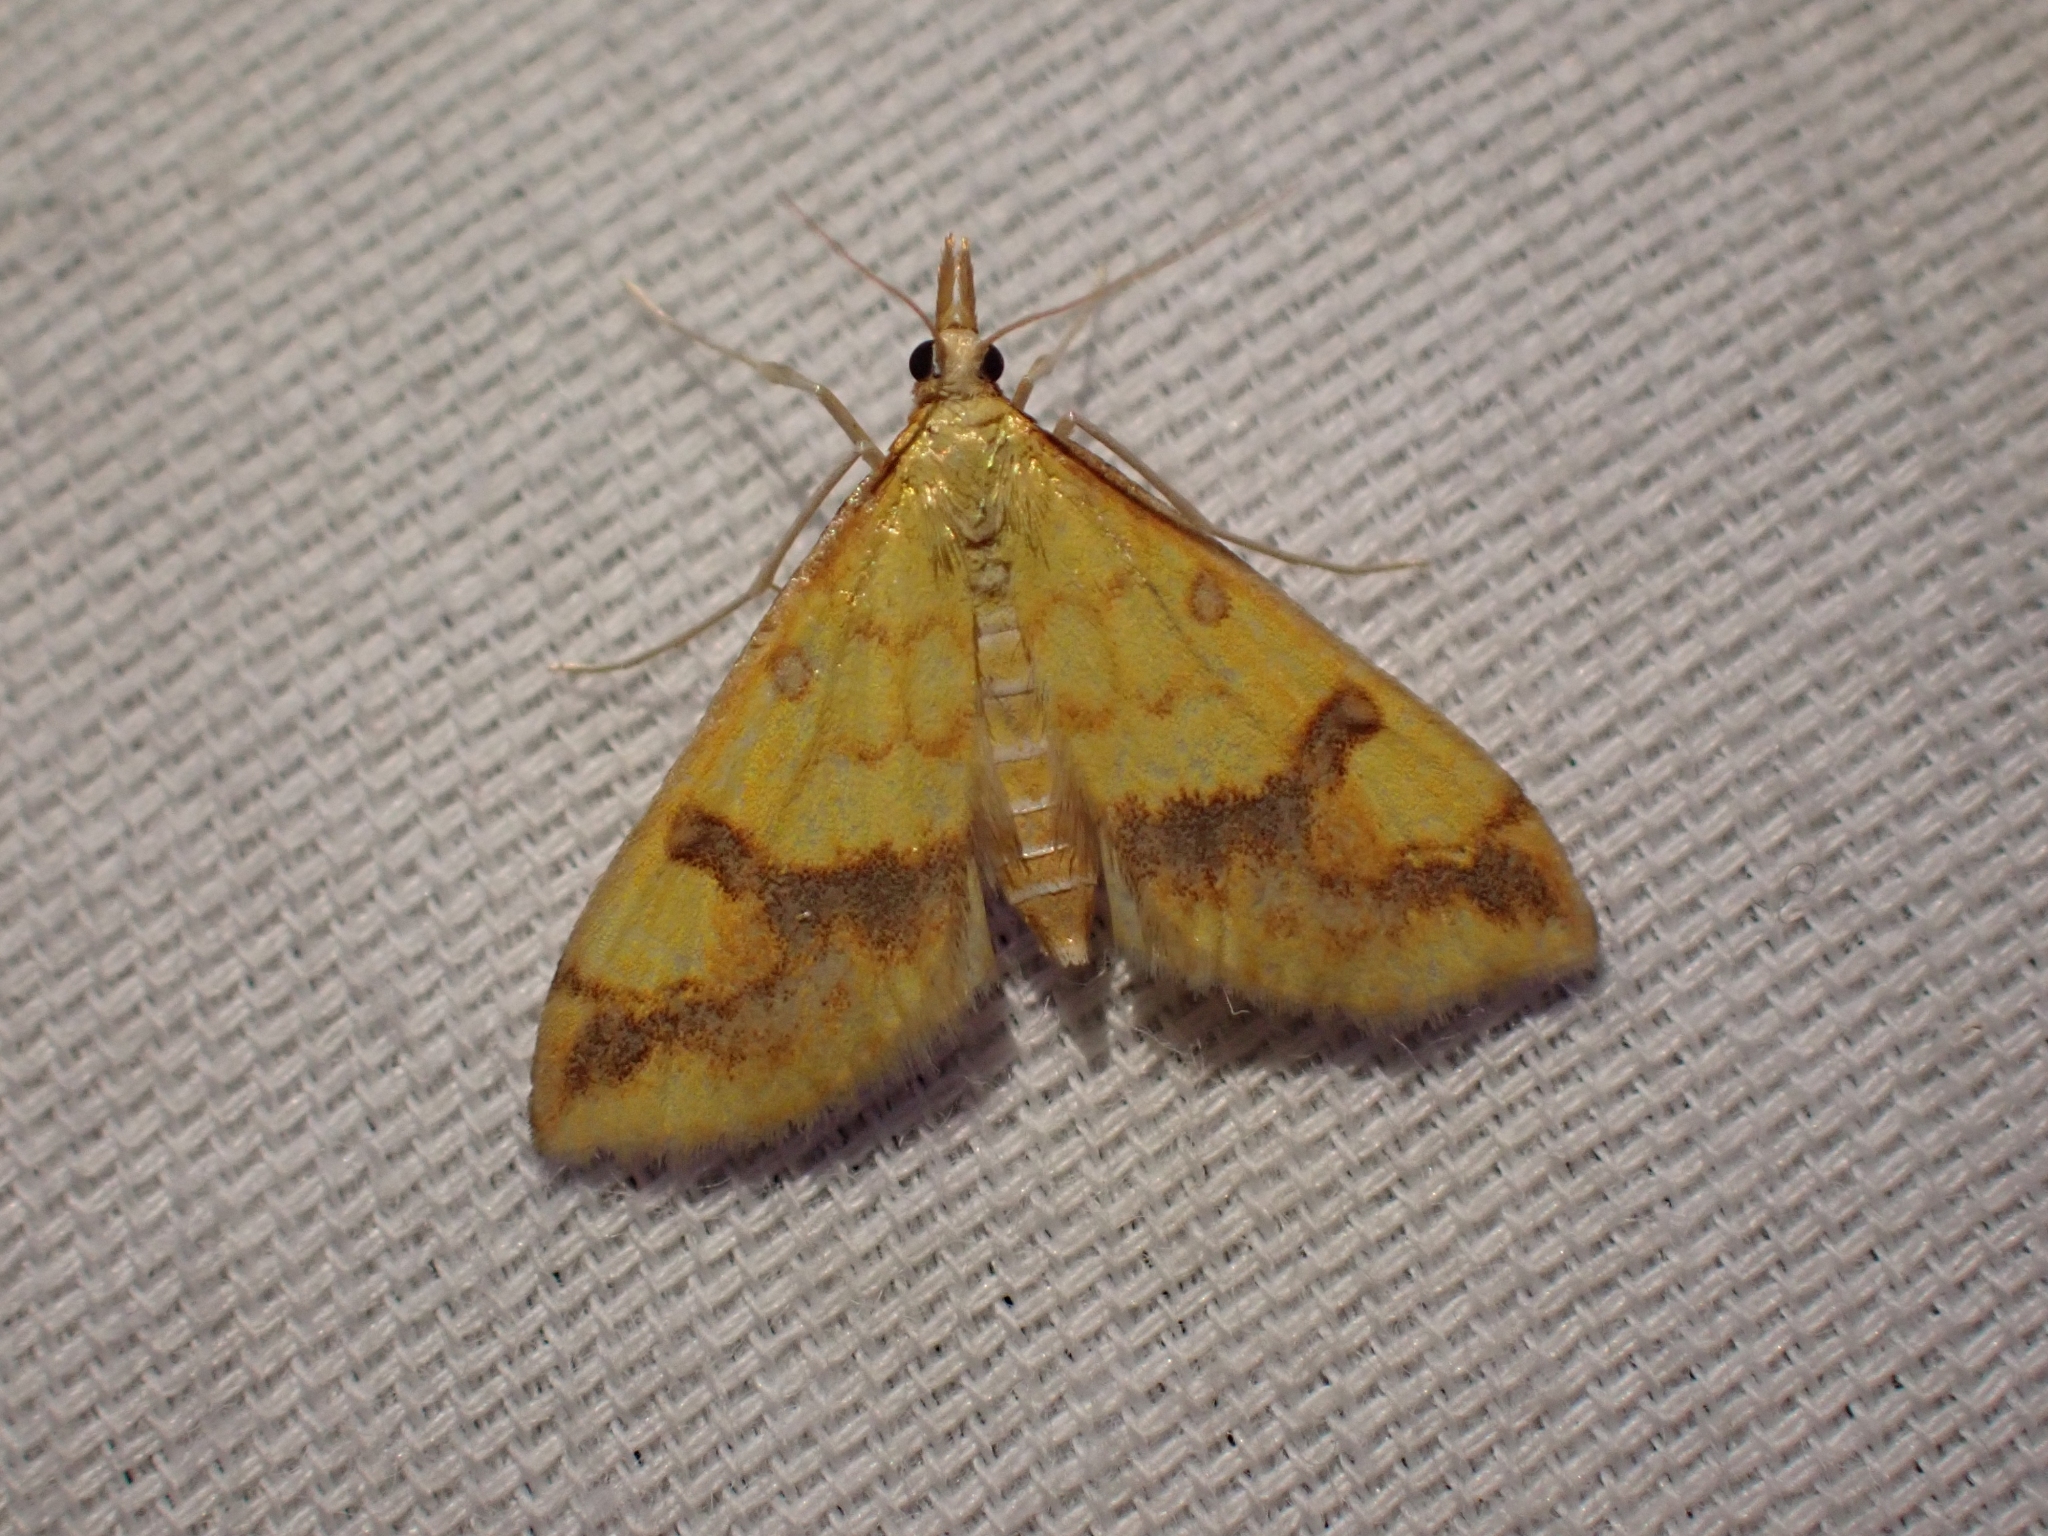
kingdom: Animalia
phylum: Arthropoda
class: Insecta
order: Lepidoptera
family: Crambidae
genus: Choristostigma
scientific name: Choristostigma plumbosignalis
